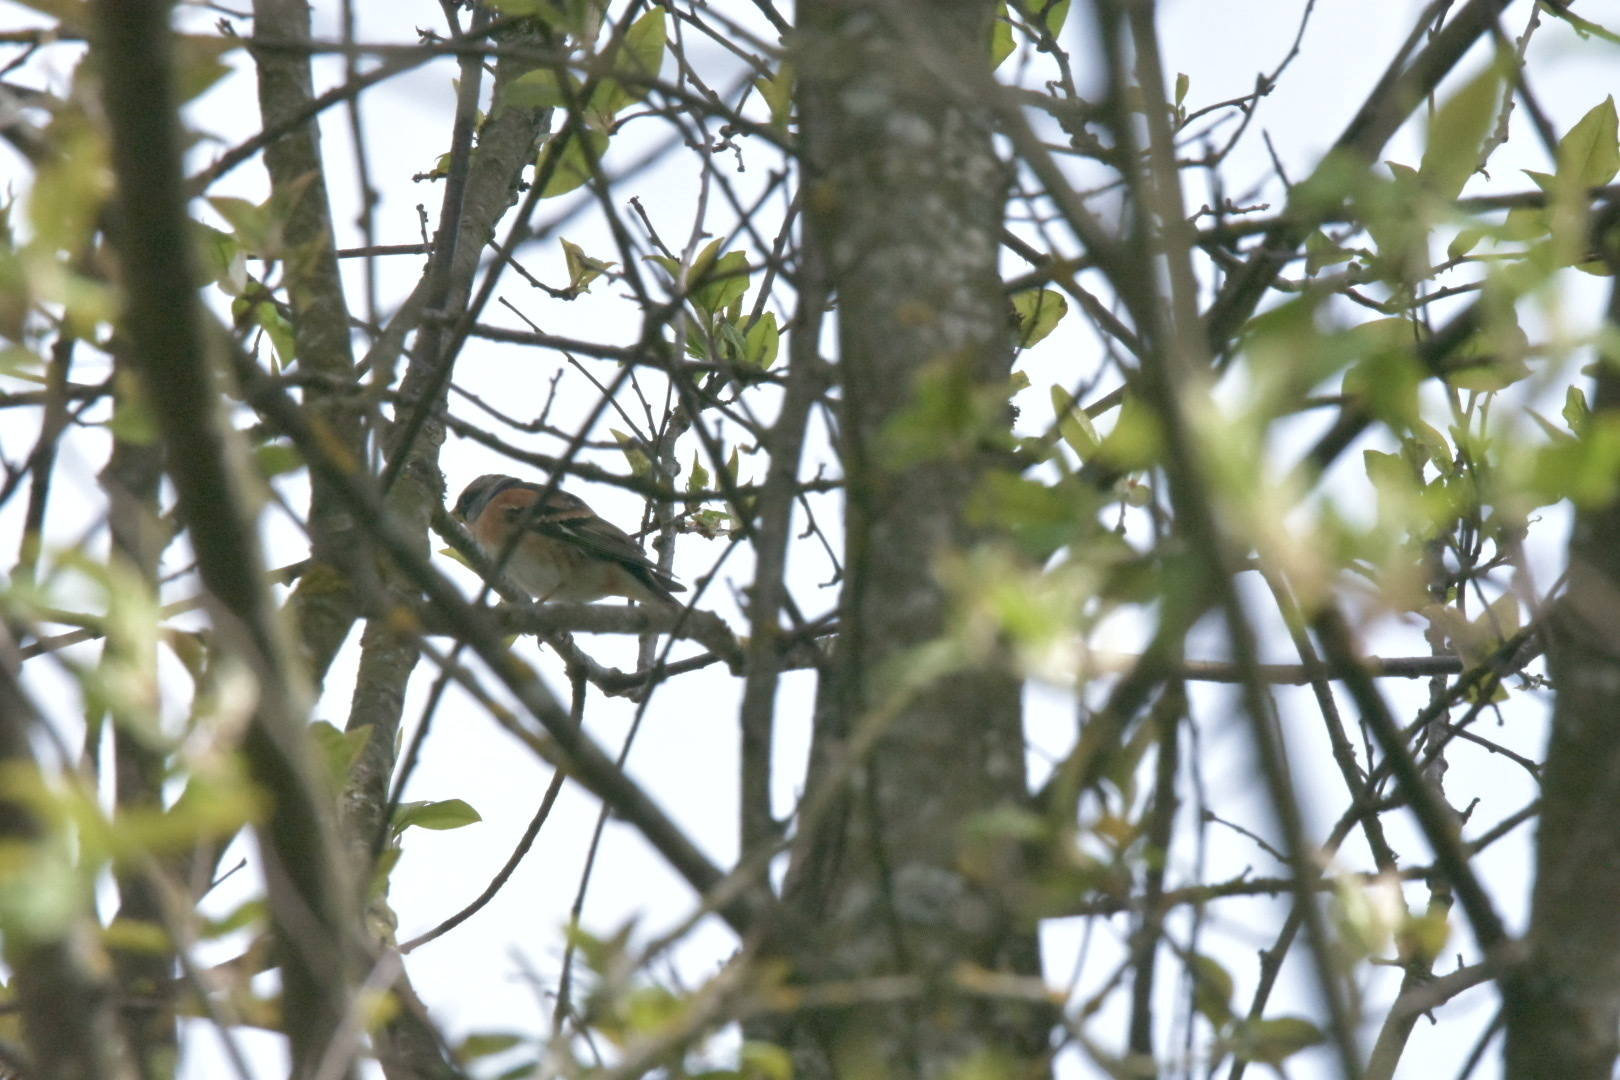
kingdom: Animalia
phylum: Chordata
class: Aves
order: Passeriformes
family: Fringillidae
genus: Fringilla
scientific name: Fringilla montifringilla
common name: Brambling
